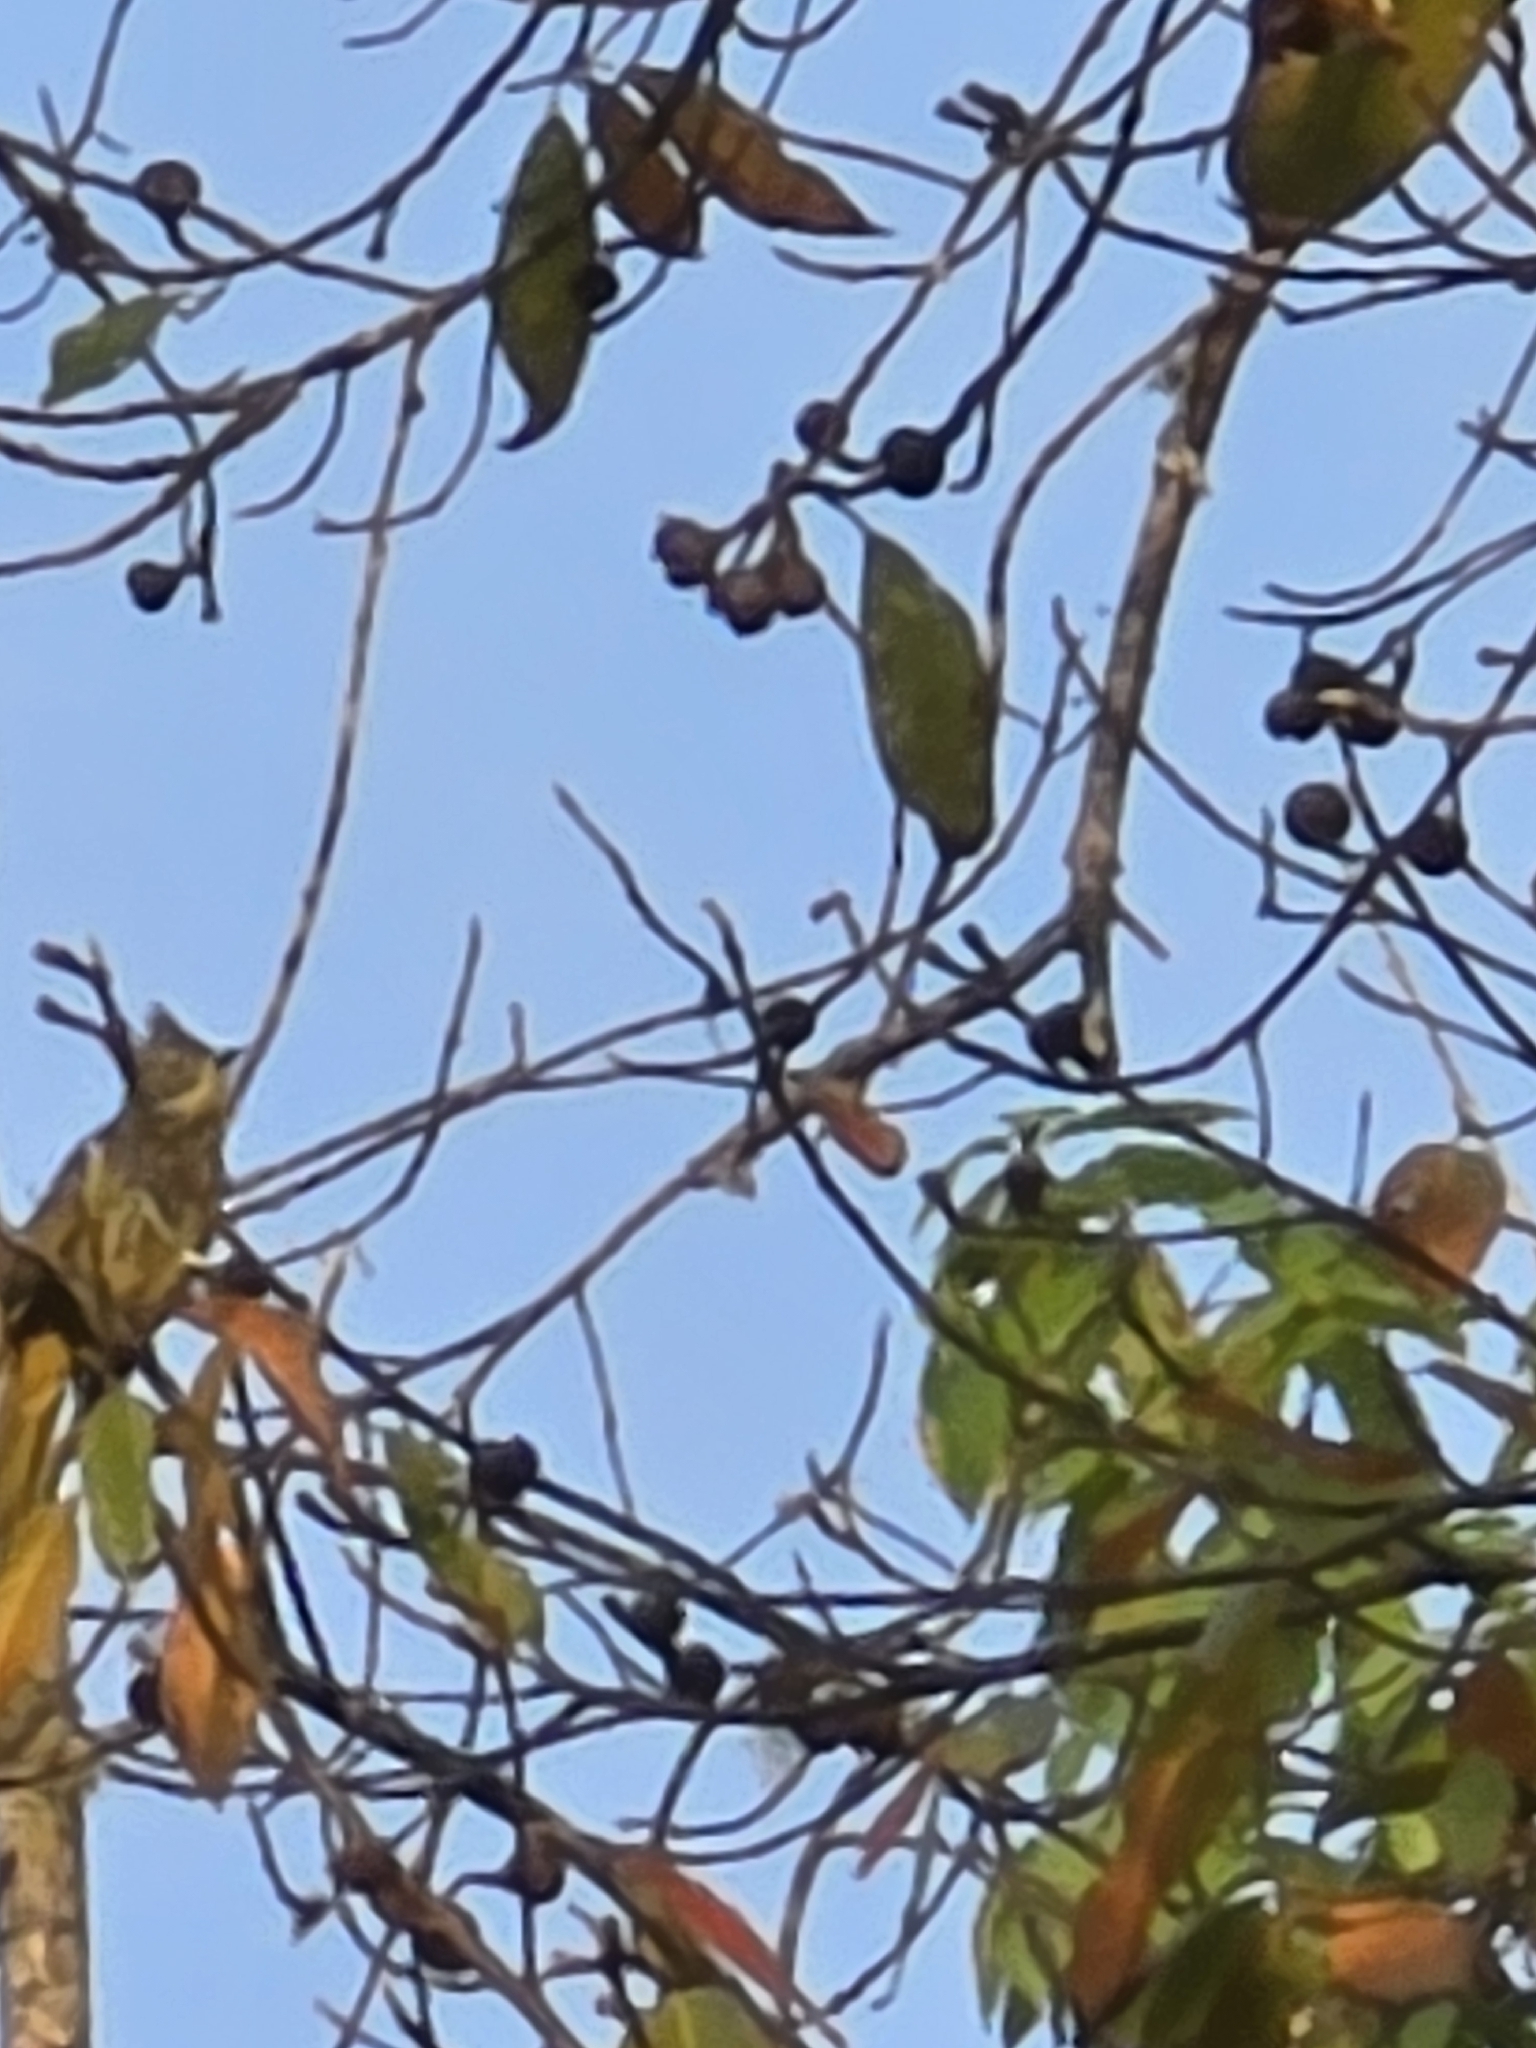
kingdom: Animalia
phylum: Chordata
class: Aves
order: Passeriformes
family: Pycnonotidae
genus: Pycnonotus
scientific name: Pycnonotus striatus
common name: Striated bulbul
